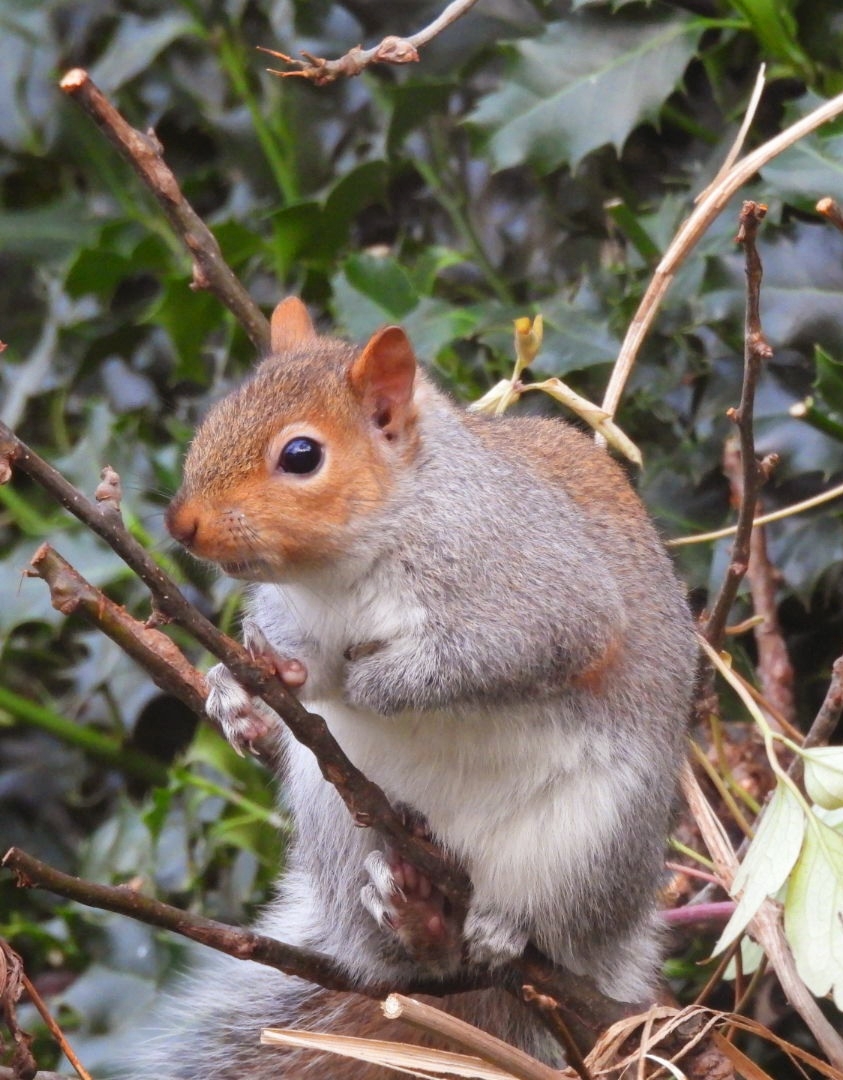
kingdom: Animalia
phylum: Chordata
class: Mammalia
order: Rodentia
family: Sciuridae
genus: Sciurus
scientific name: Sciurus carolinensis
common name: Eastern gray squirrel
